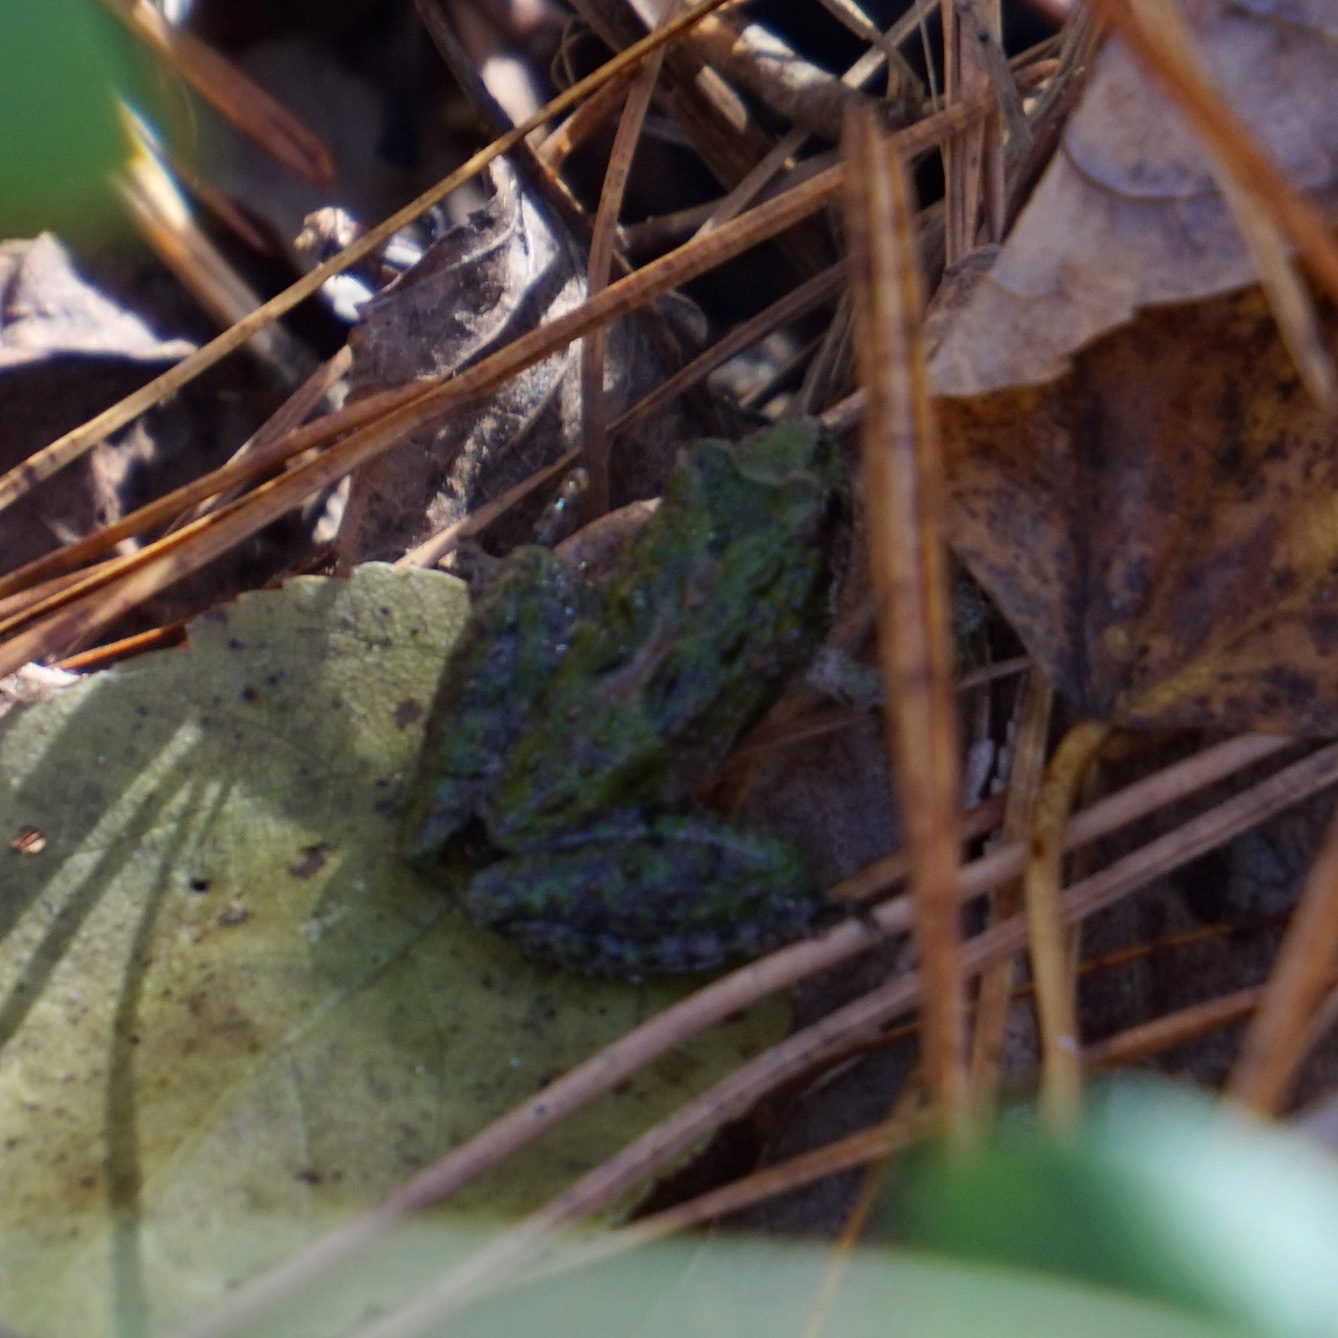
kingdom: Animalia
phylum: Chordata
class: Amphibia
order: Anura
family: Hylidae
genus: Acris
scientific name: Acris crepitans
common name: Northern cricket frog
